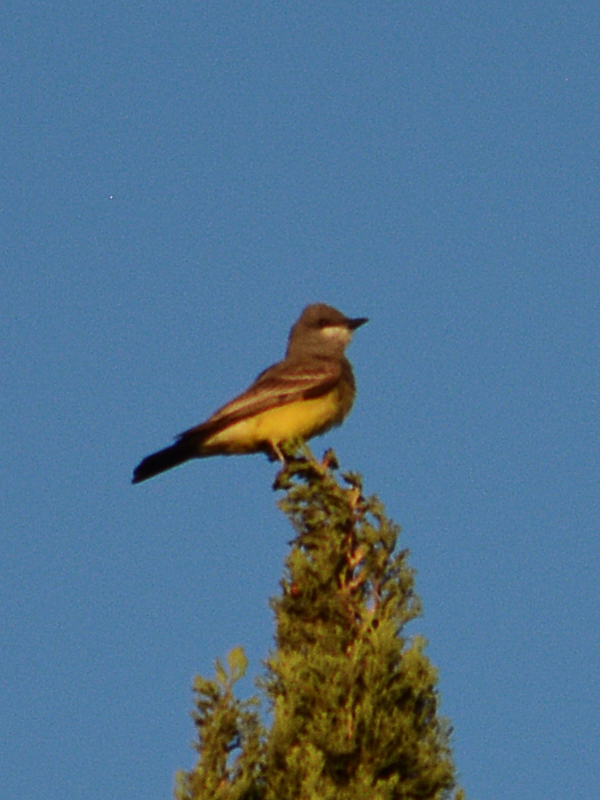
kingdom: Animalia
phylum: Chordata
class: Aves
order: Passeriformes
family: Tyrannidae
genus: Tyrannus
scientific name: Tyrannus vociferans
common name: Cassin's kingbird
